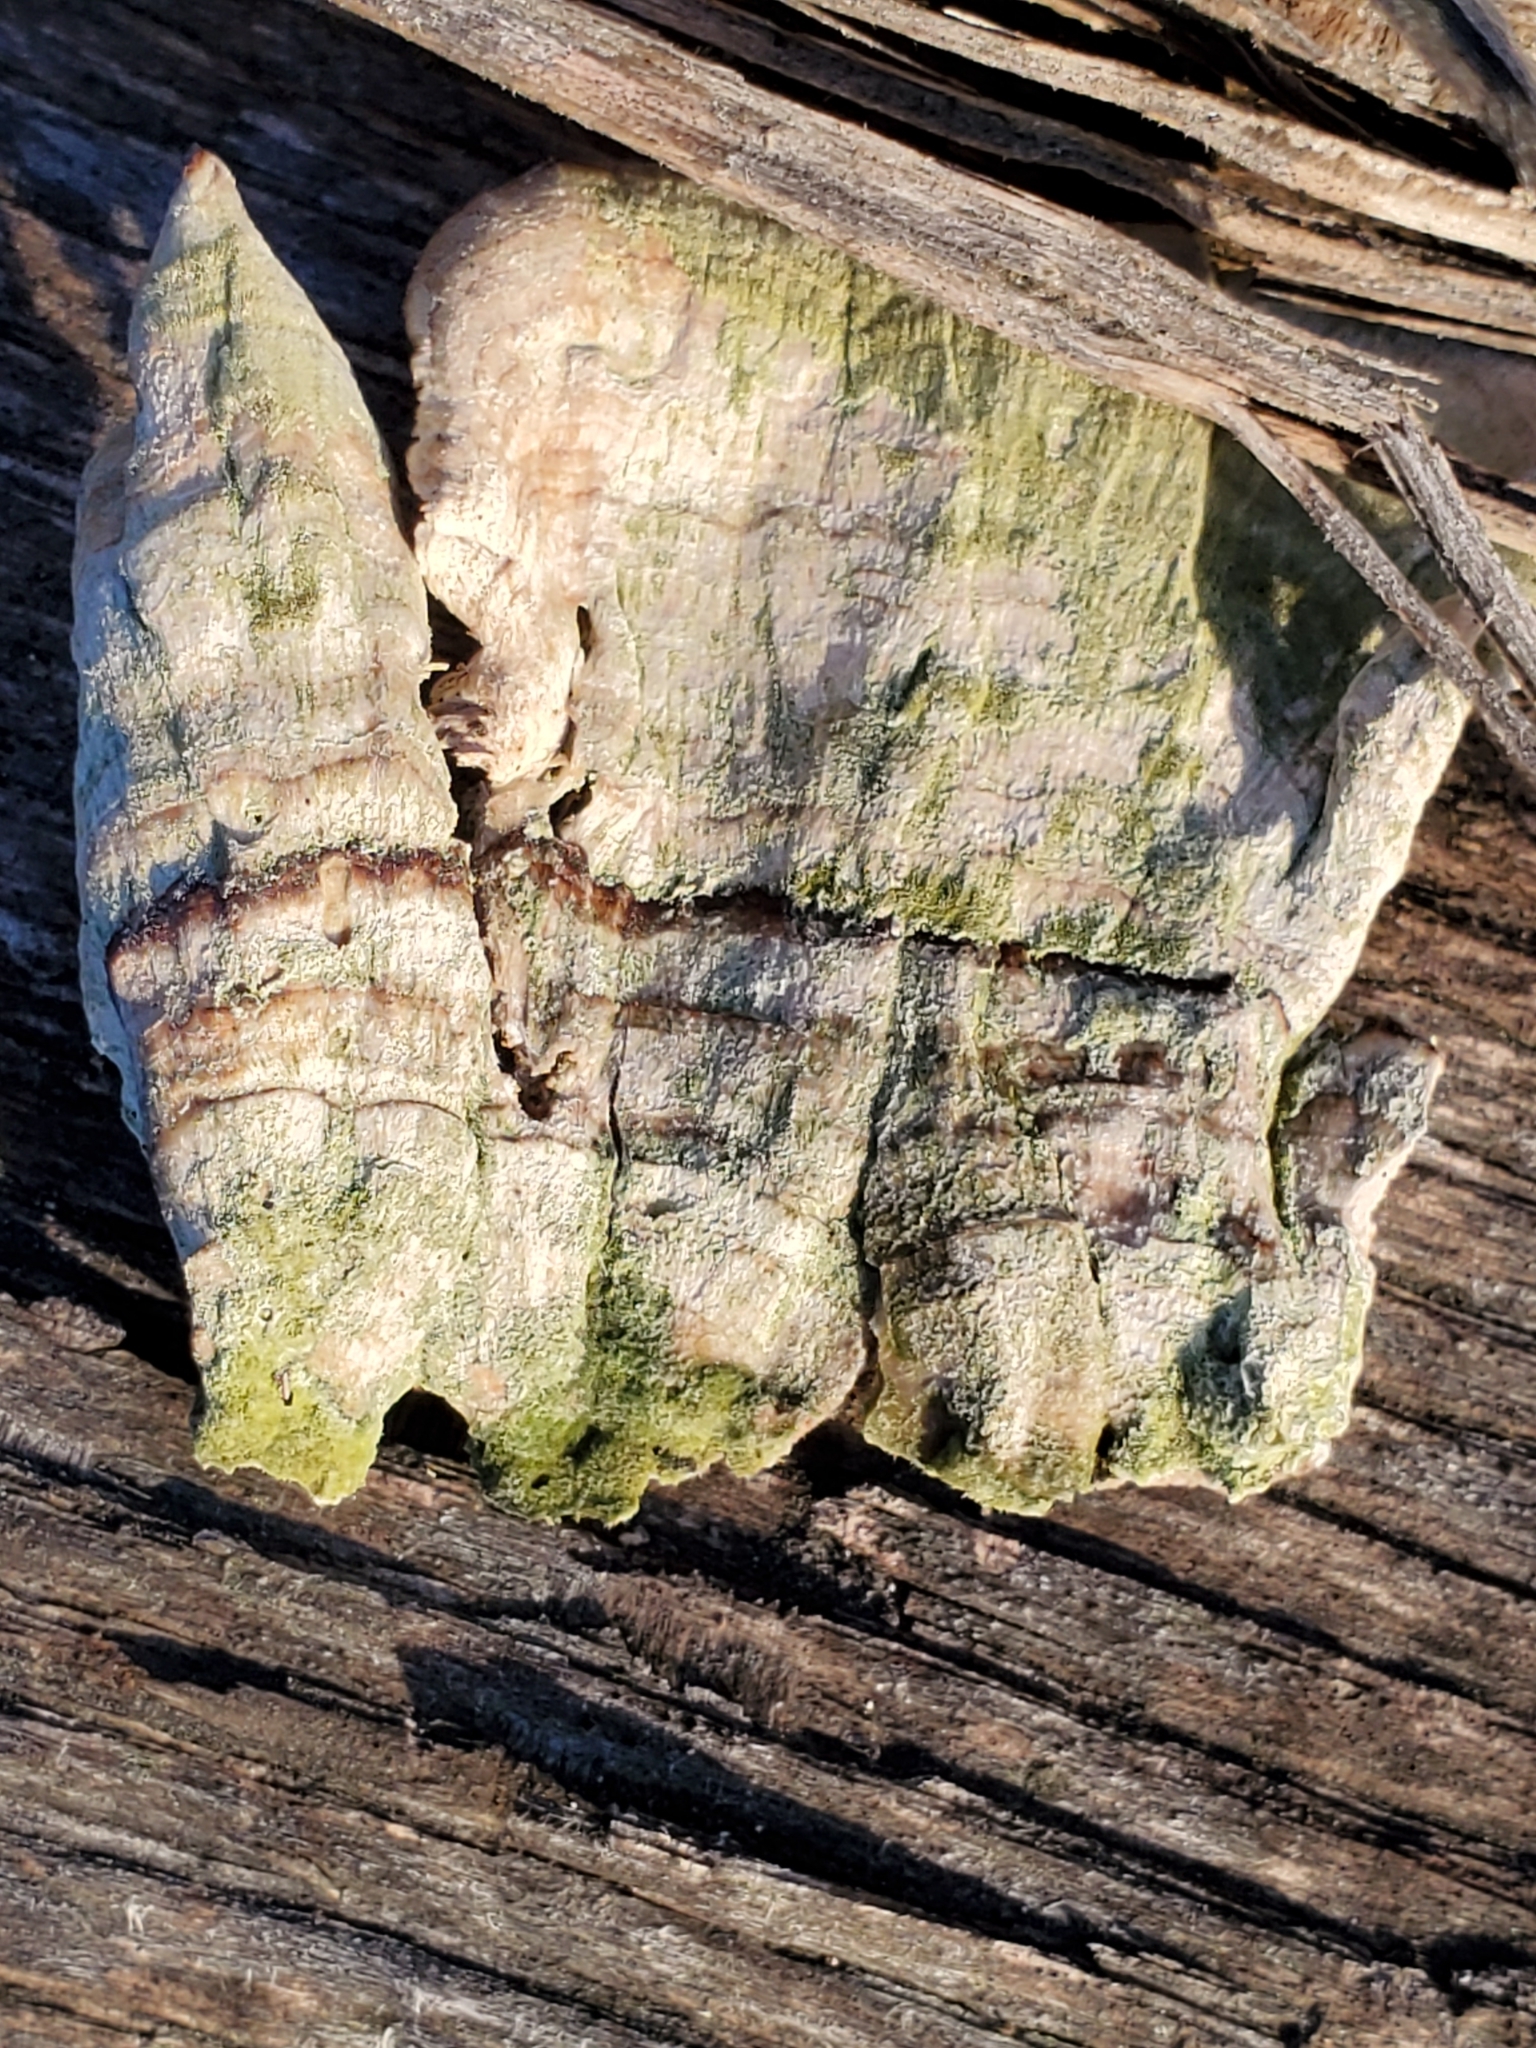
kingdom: Fungi
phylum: Basidiomycota
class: Agaricomycetes
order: Hymenochaetales
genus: Trichaptum
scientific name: Trichaptum biforme
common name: Violet-toothed polypore
